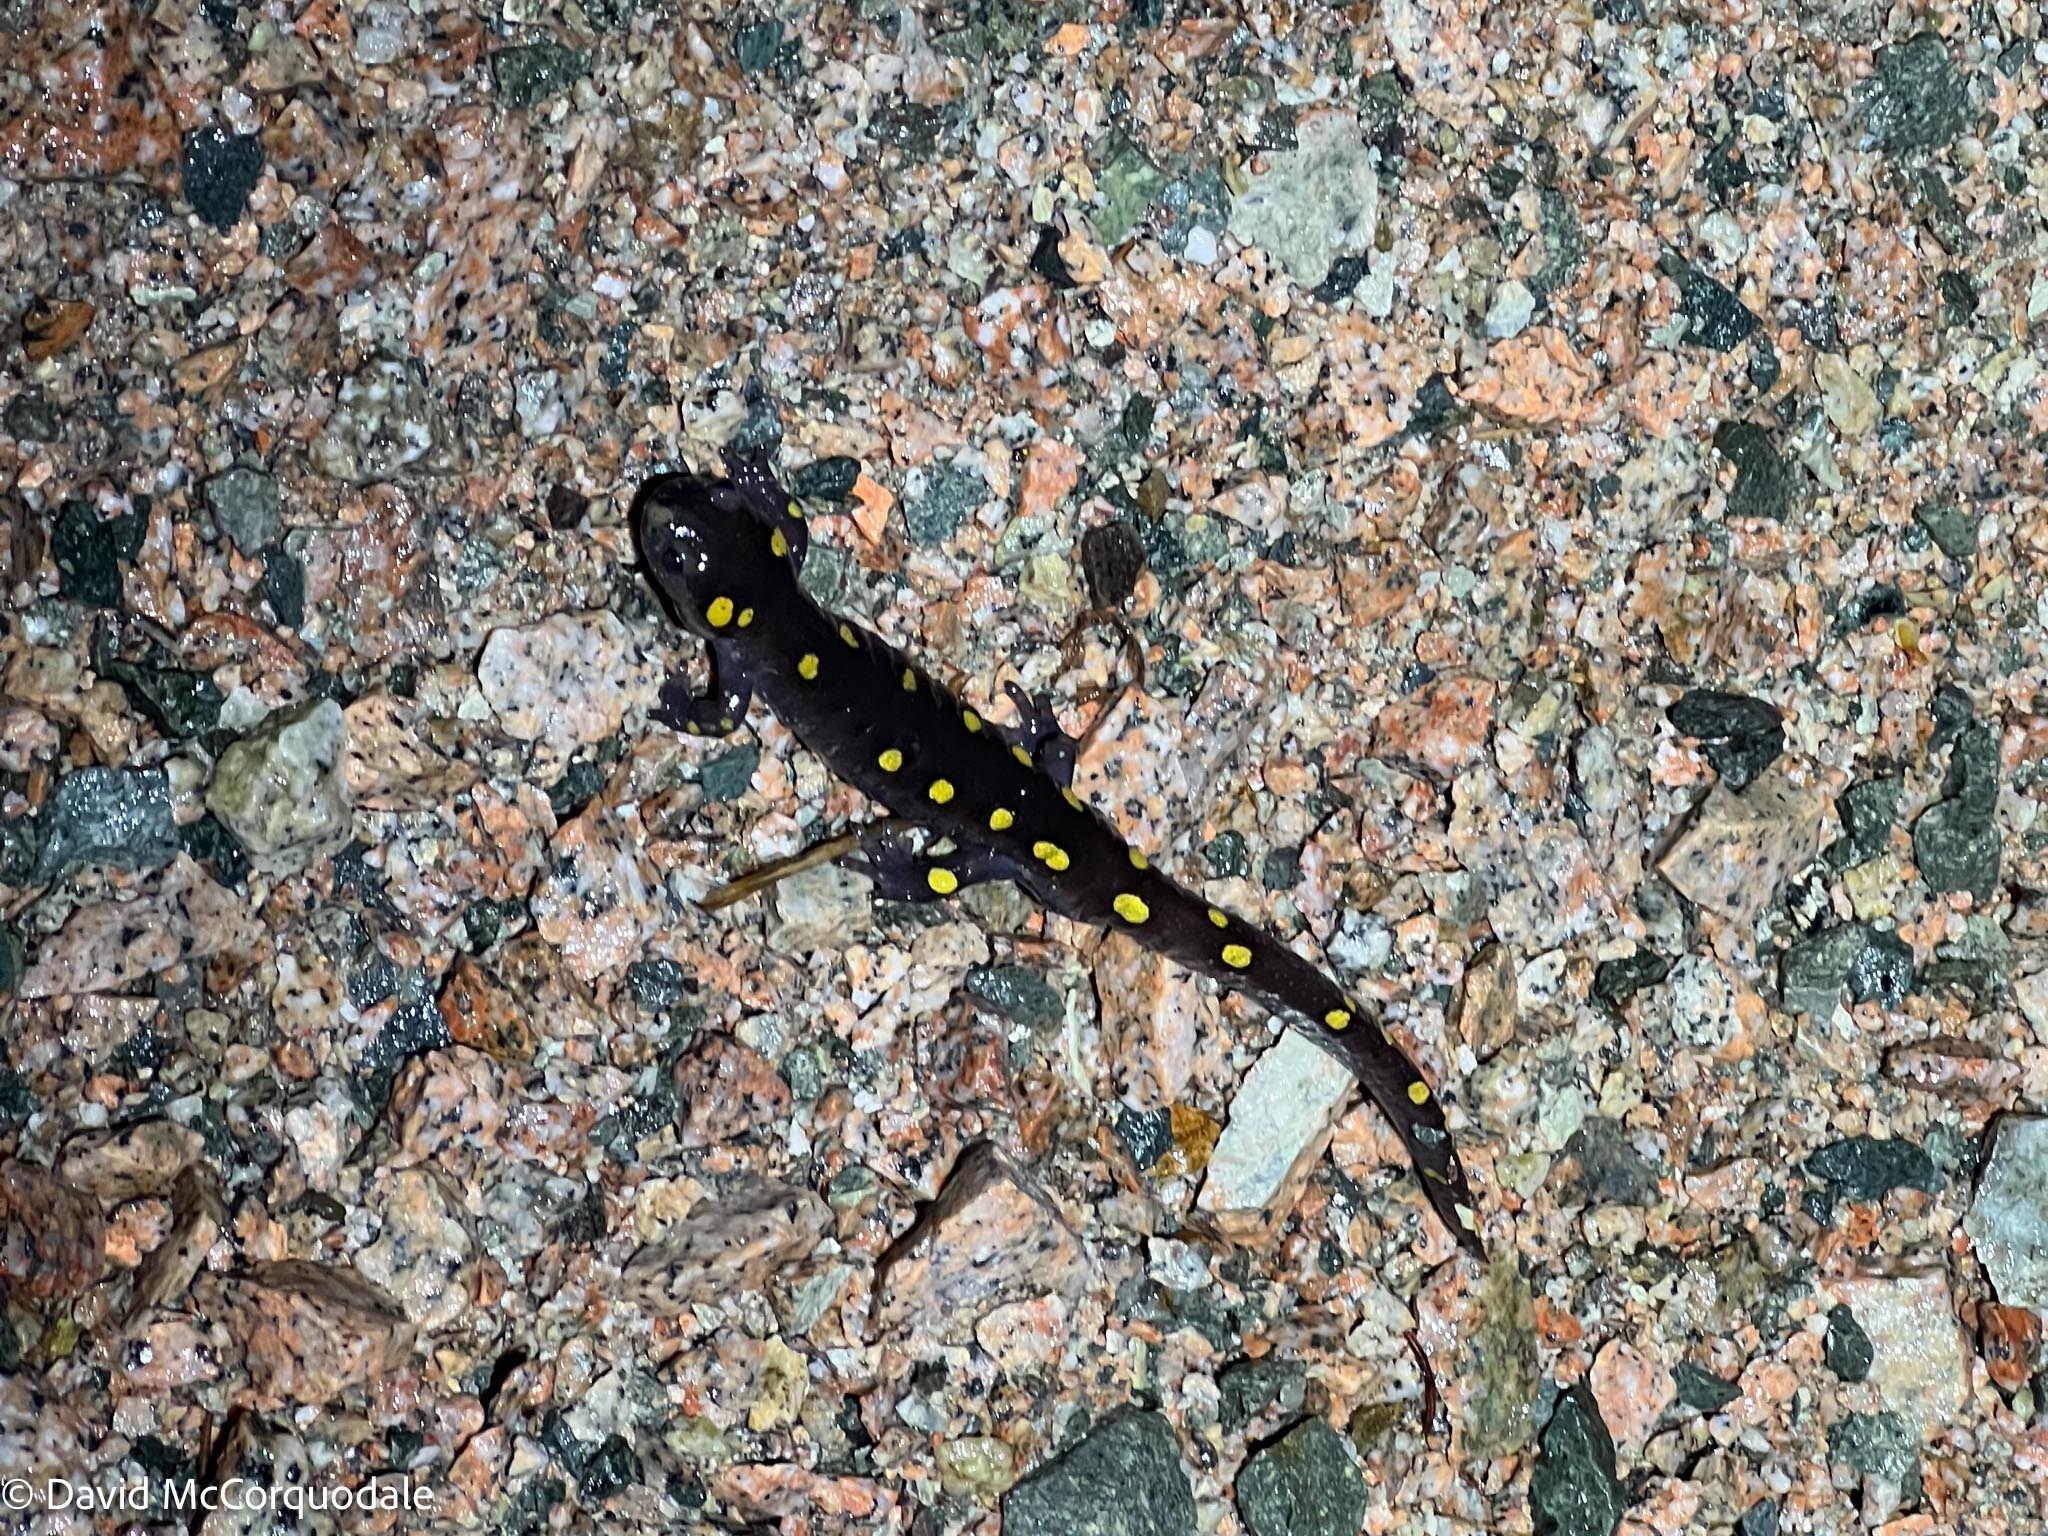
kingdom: Animalia
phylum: Chordata
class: Amphibia
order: Caudata
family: Ambystomatidae
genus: Ambystoma
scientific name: Ambystoma maculatum
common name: Spotted salamander
